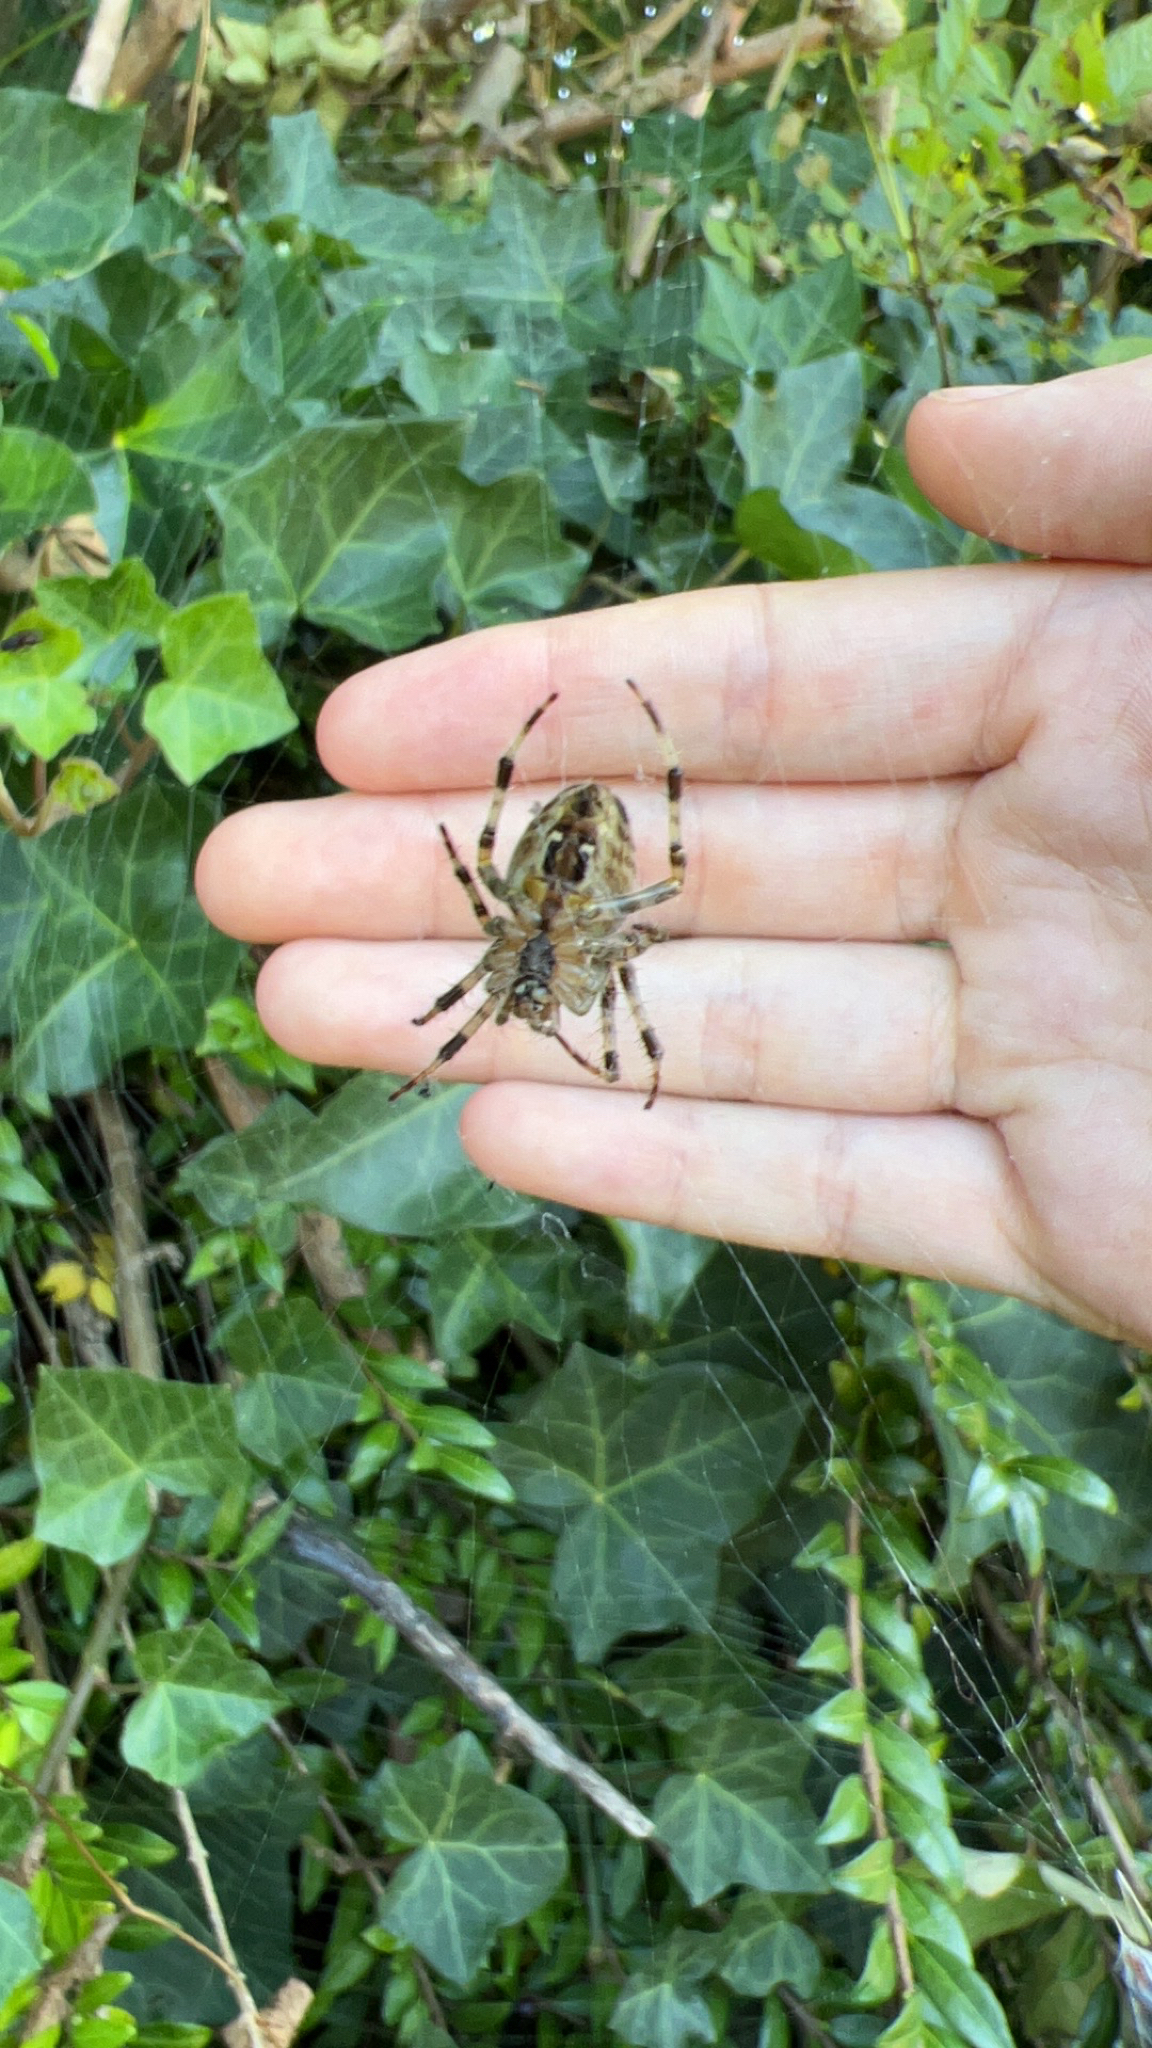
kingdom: Animalia
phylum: Arthropoda
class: Arachnida
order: Araneae
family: Araneidae
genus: Araneus
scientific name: Araneus diadematus
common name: Cross orbweaver
